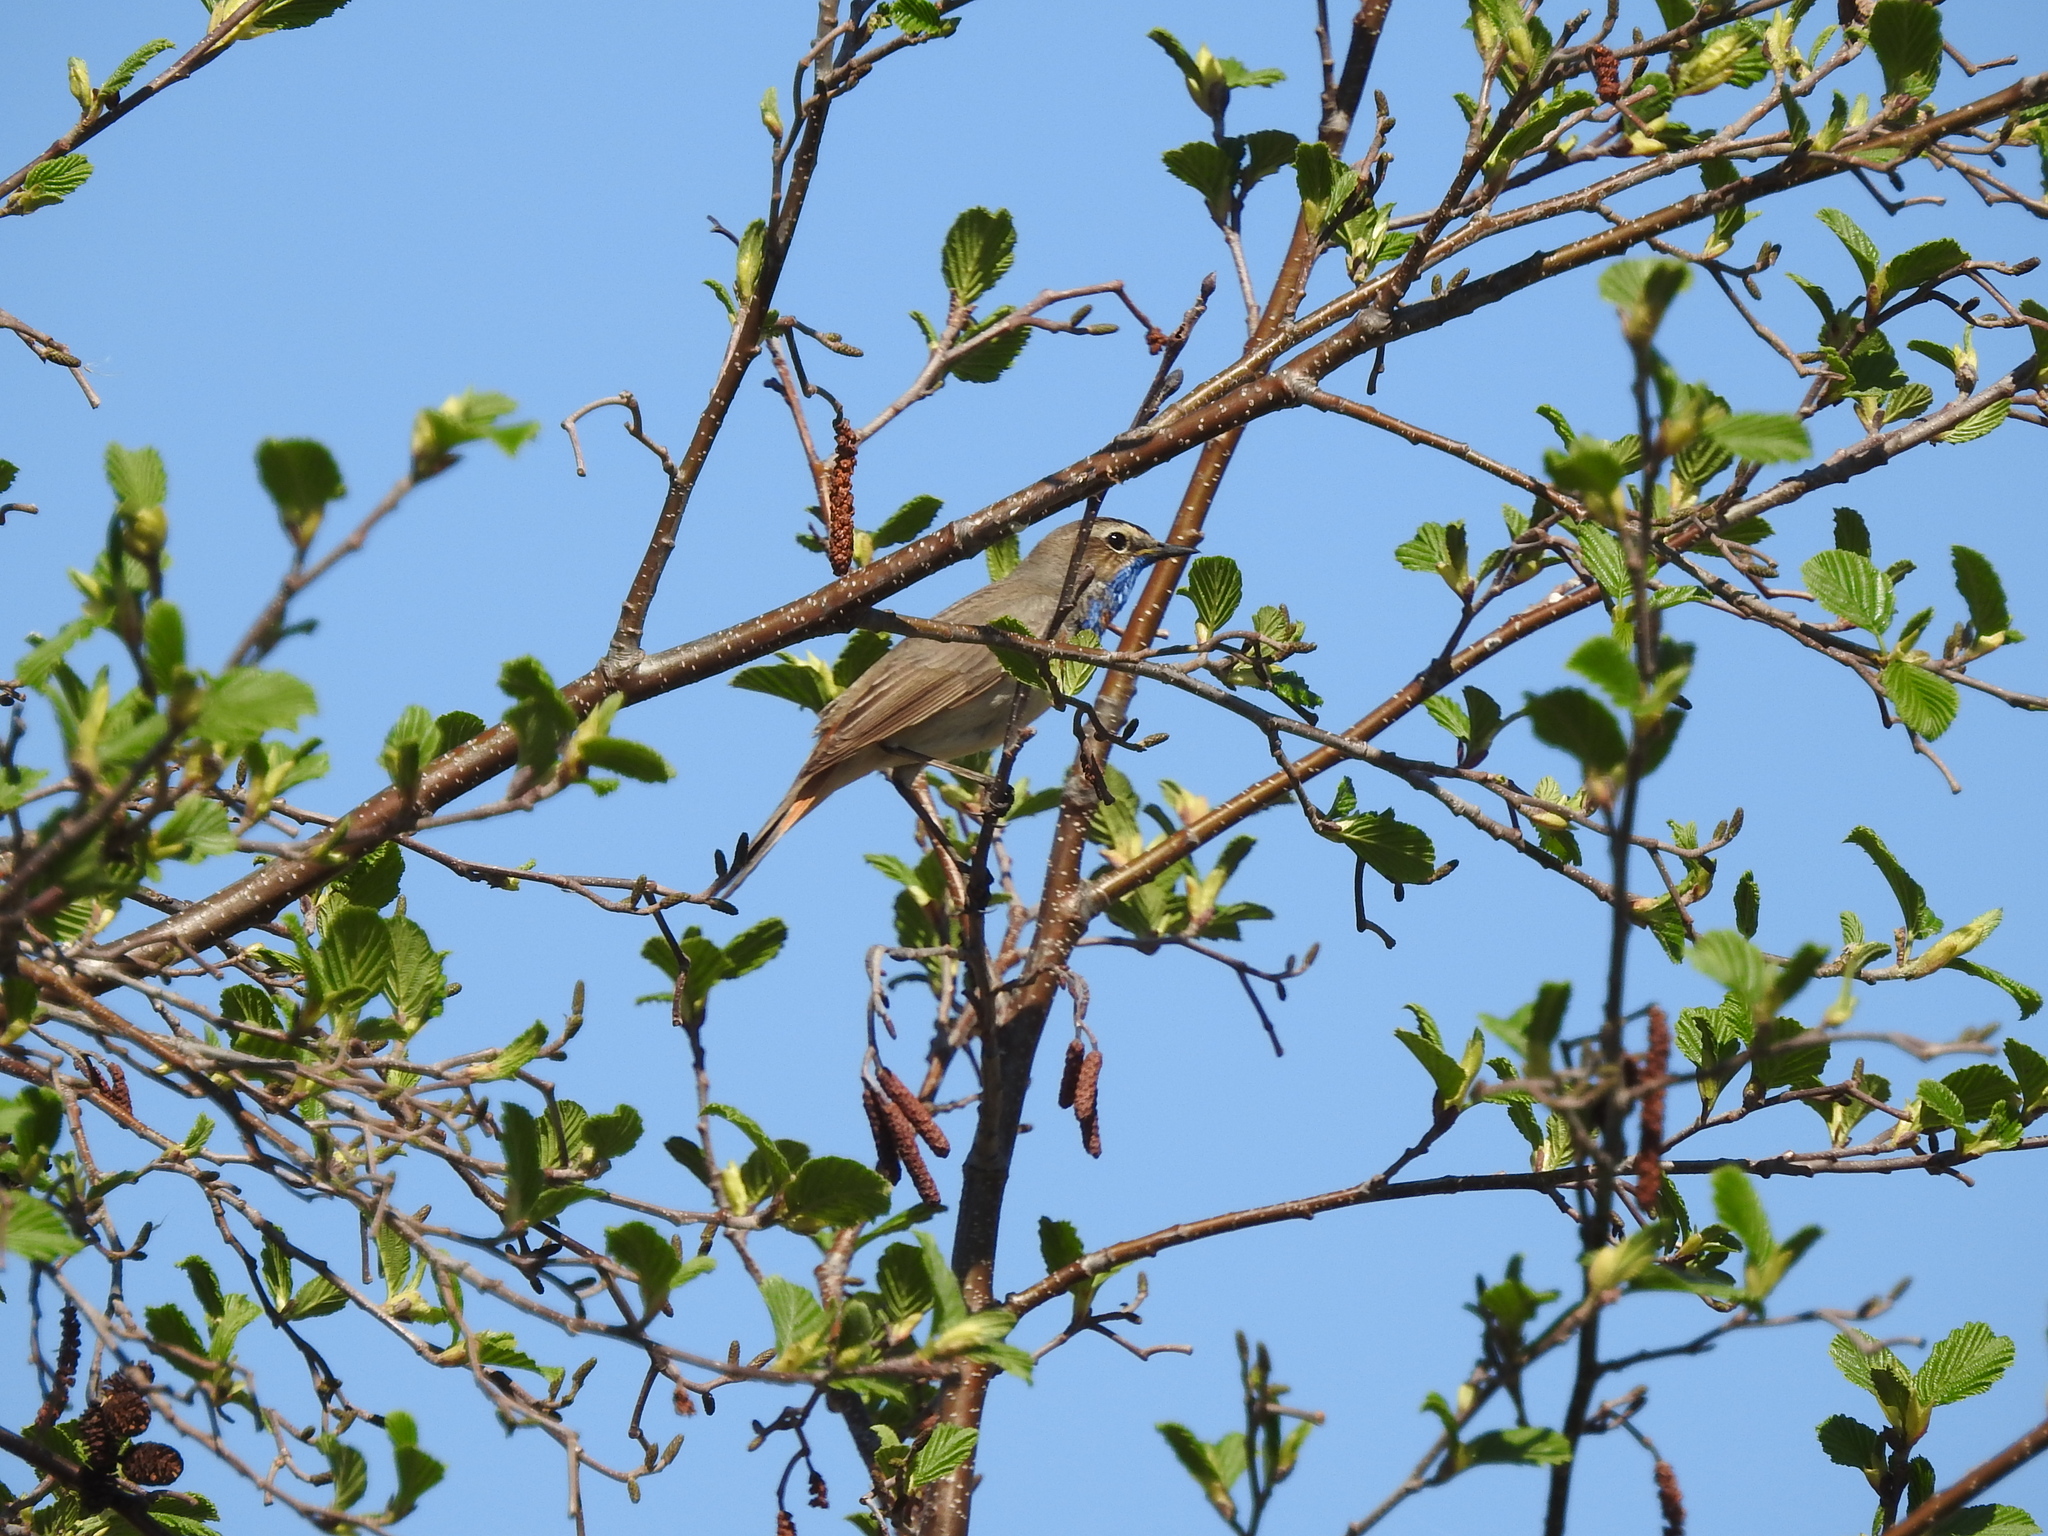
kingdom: Animalia
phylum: Chordata
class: Aves
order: Passeriformes
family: Muscicapidae
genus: Luscinia
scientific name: Luscinia svecica
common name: Bluethroat
